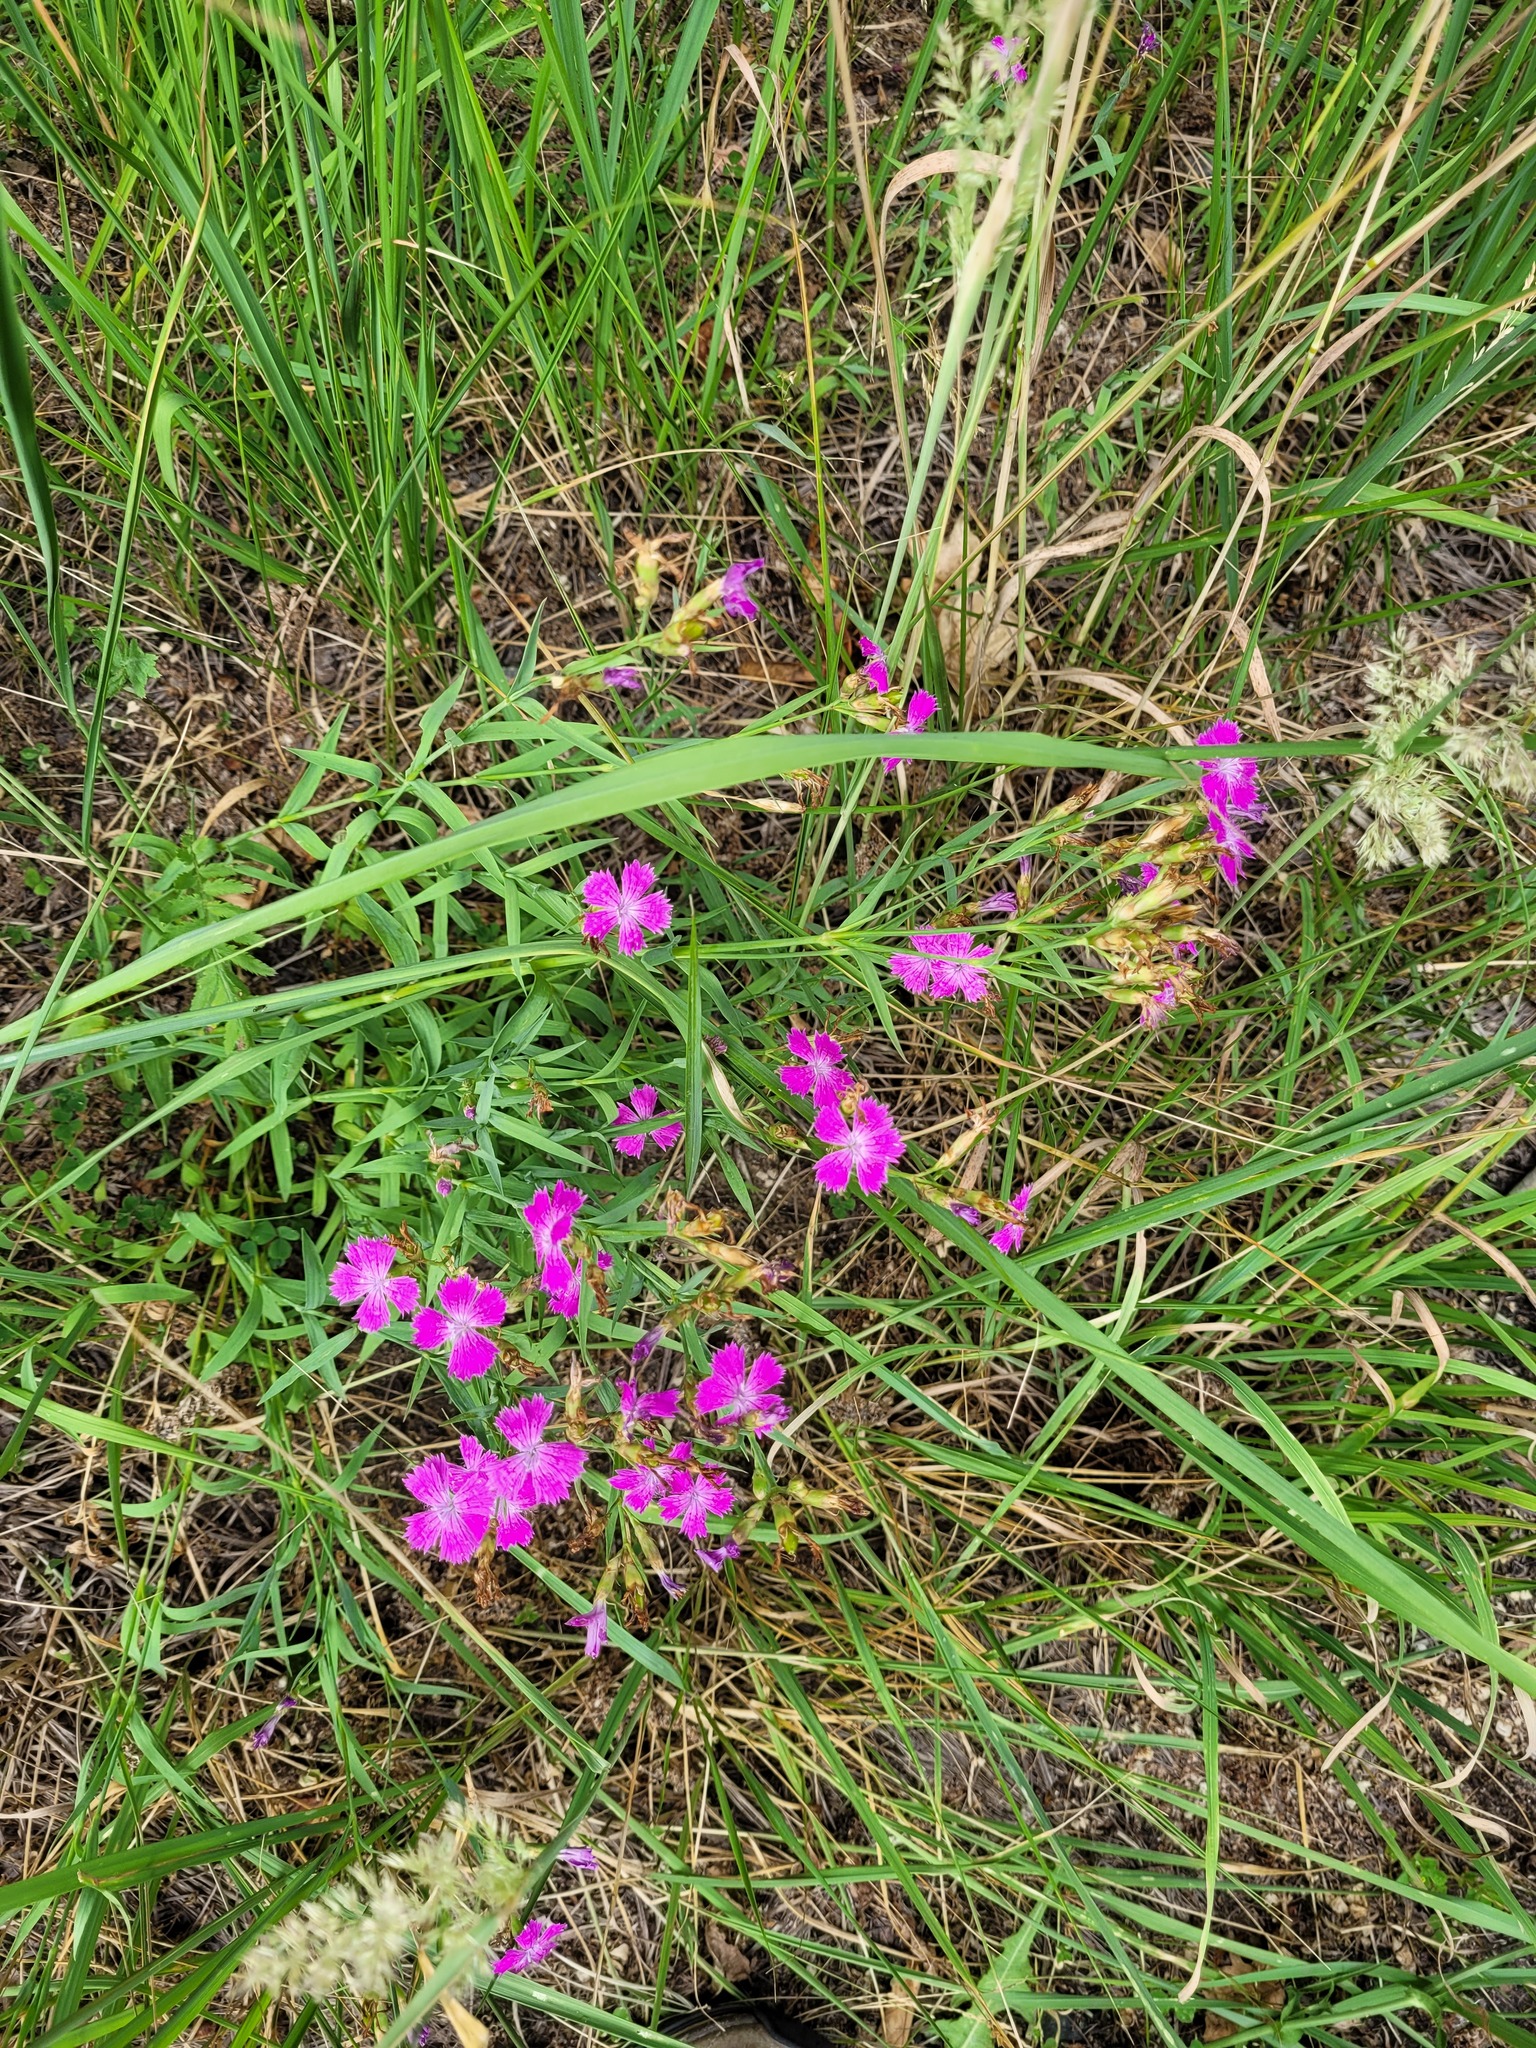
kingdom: Plantae
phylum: Tracheophyta
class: Magnoliopsida
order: Caryophyllales
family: Caryophyllaceae
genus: Dianthus
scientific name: Dianthus chinensis
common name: Rainbow pink
